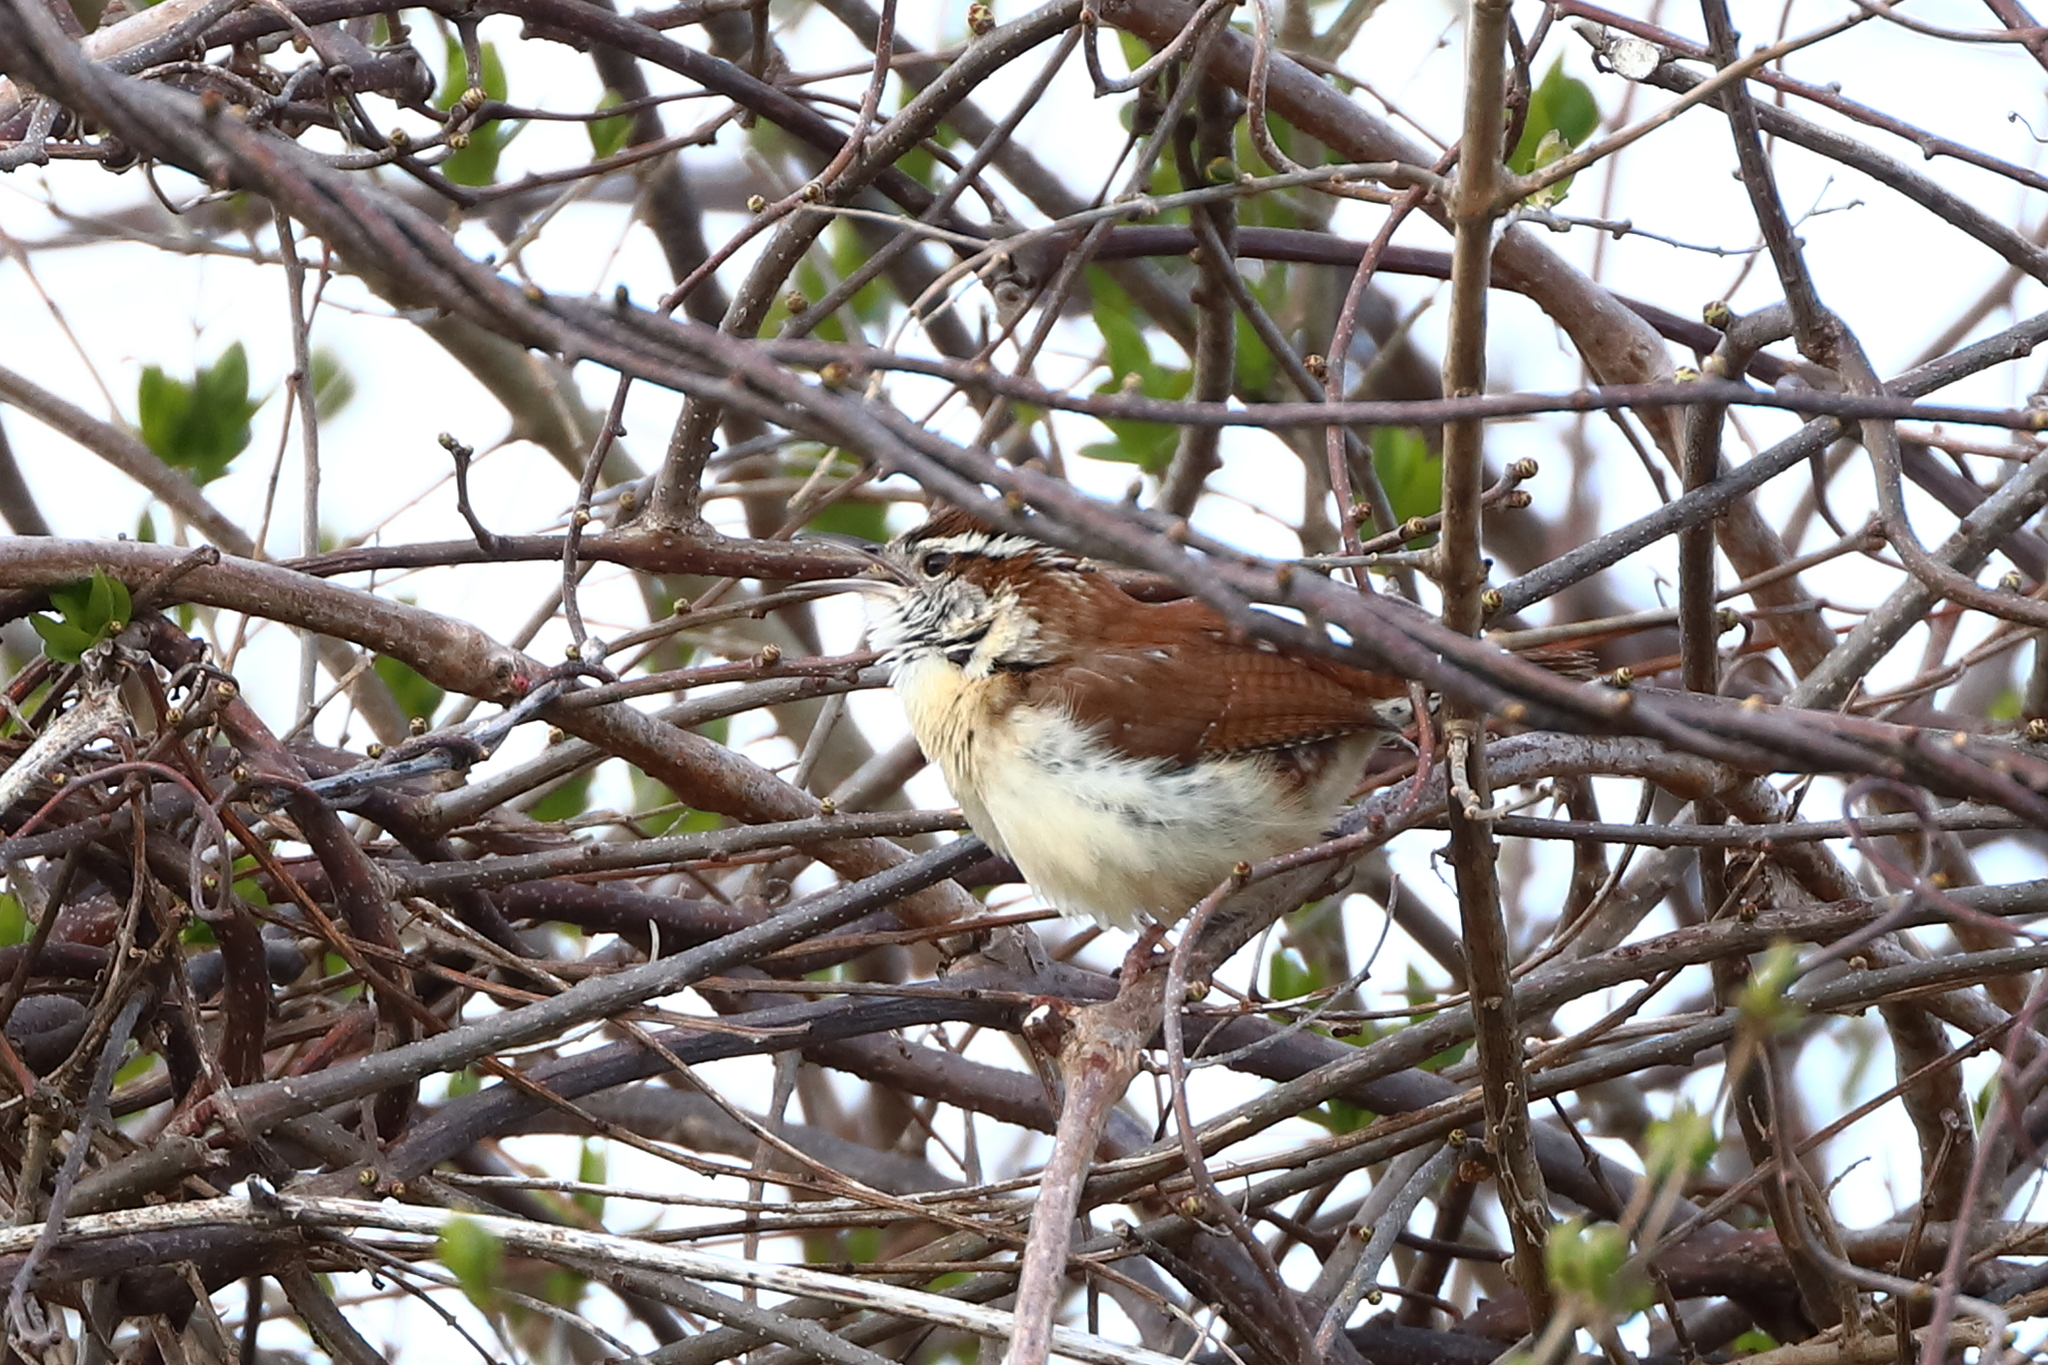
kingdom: Animalia
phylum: Chordata
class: Aves
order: Passeriformes
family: Troglodytidae
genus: Thryothorus
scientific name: Thryothorus ludovicianus
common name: Carolina wren
